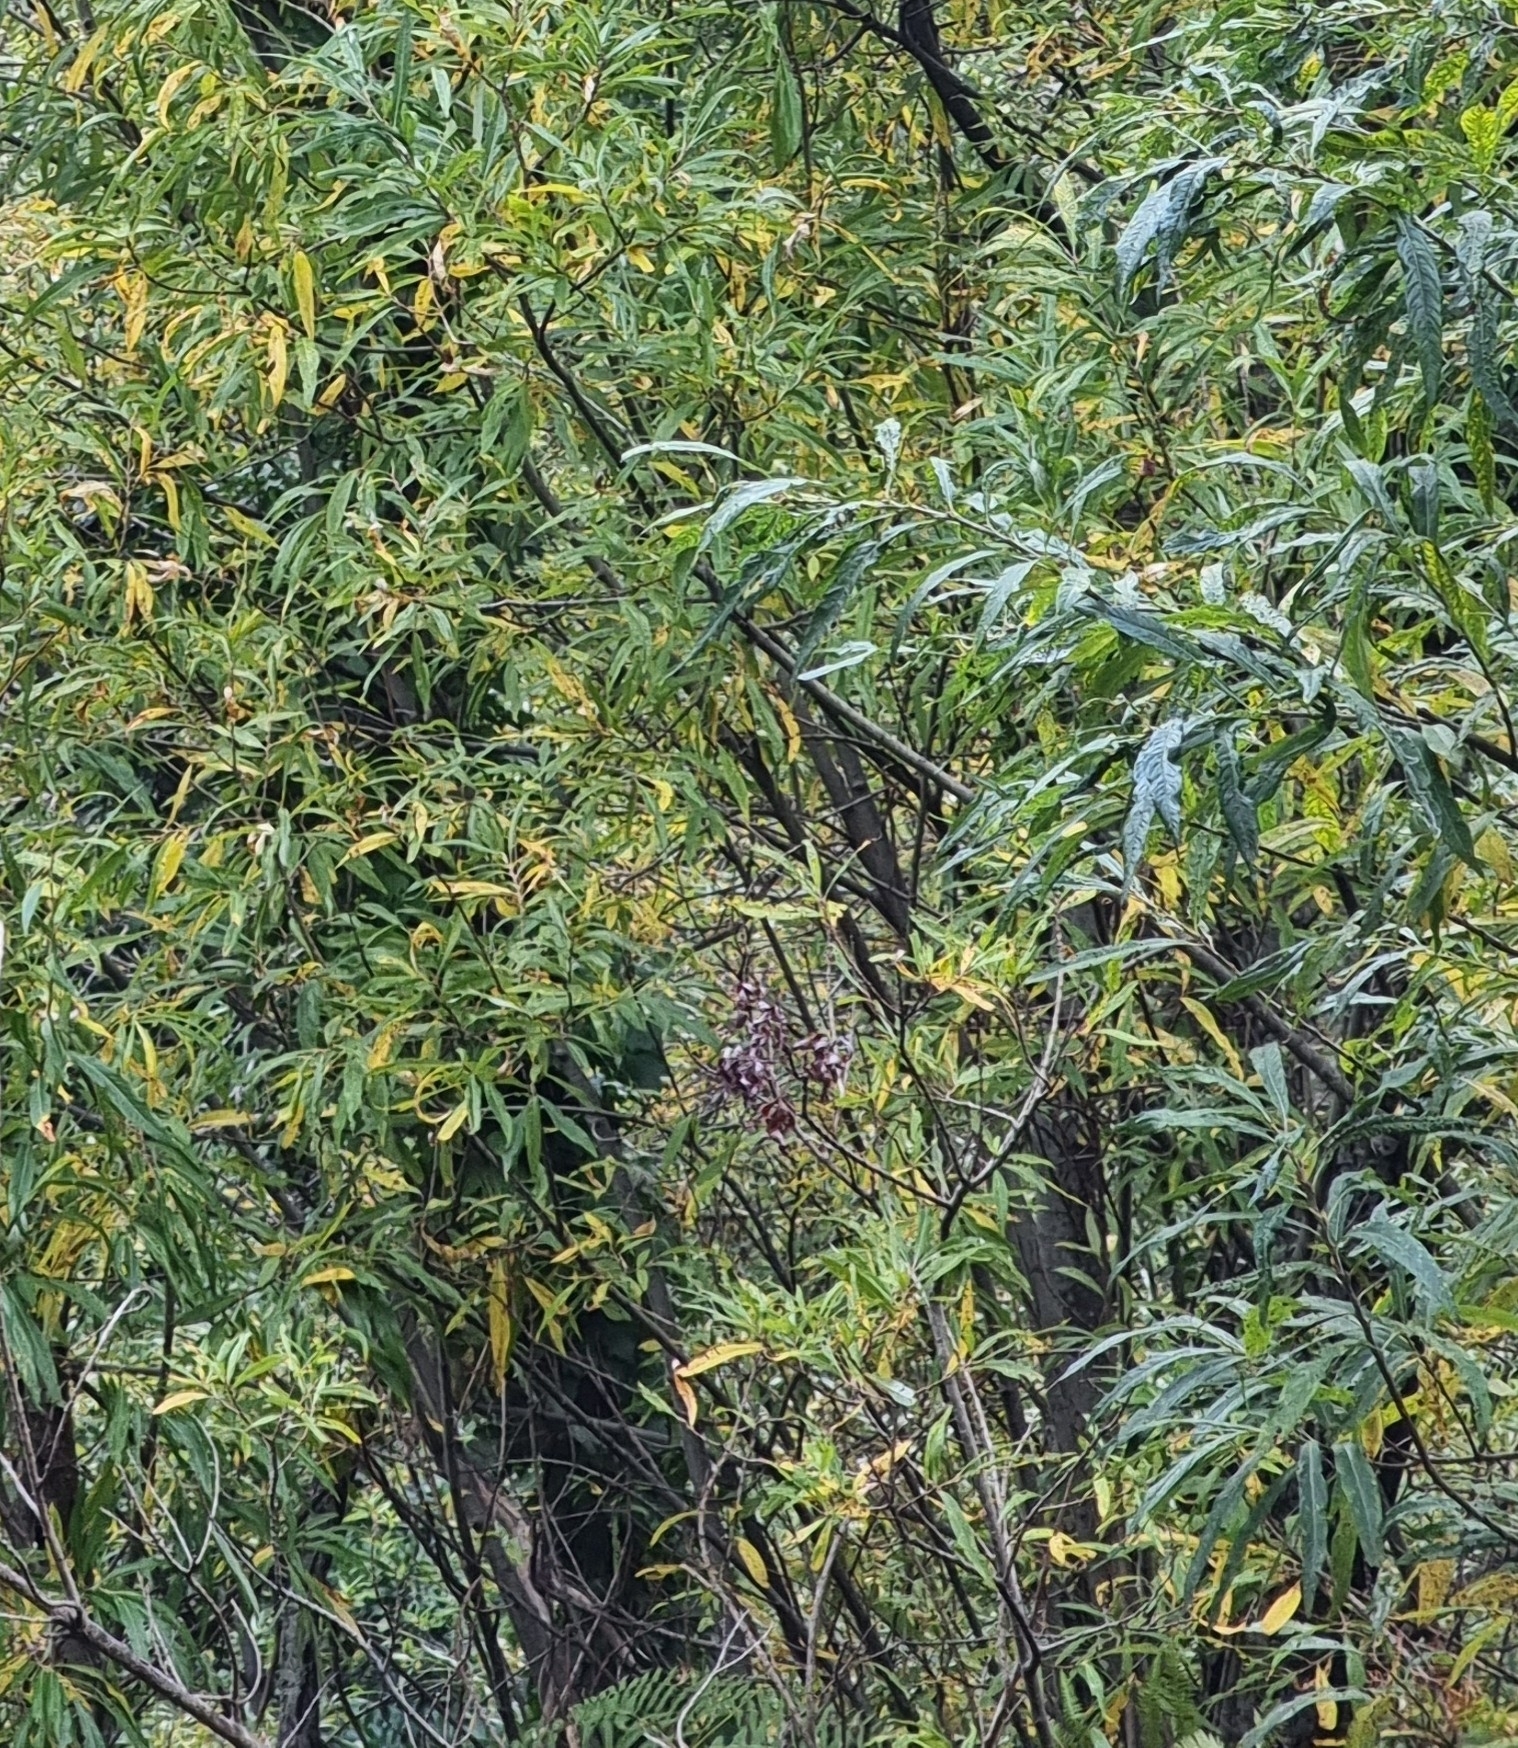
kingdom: Plantae
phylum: Tracheophyta
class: Magnoliopsida
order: Malpighiales
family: Salicaceae
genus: Salix
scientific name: Salix canariensis
